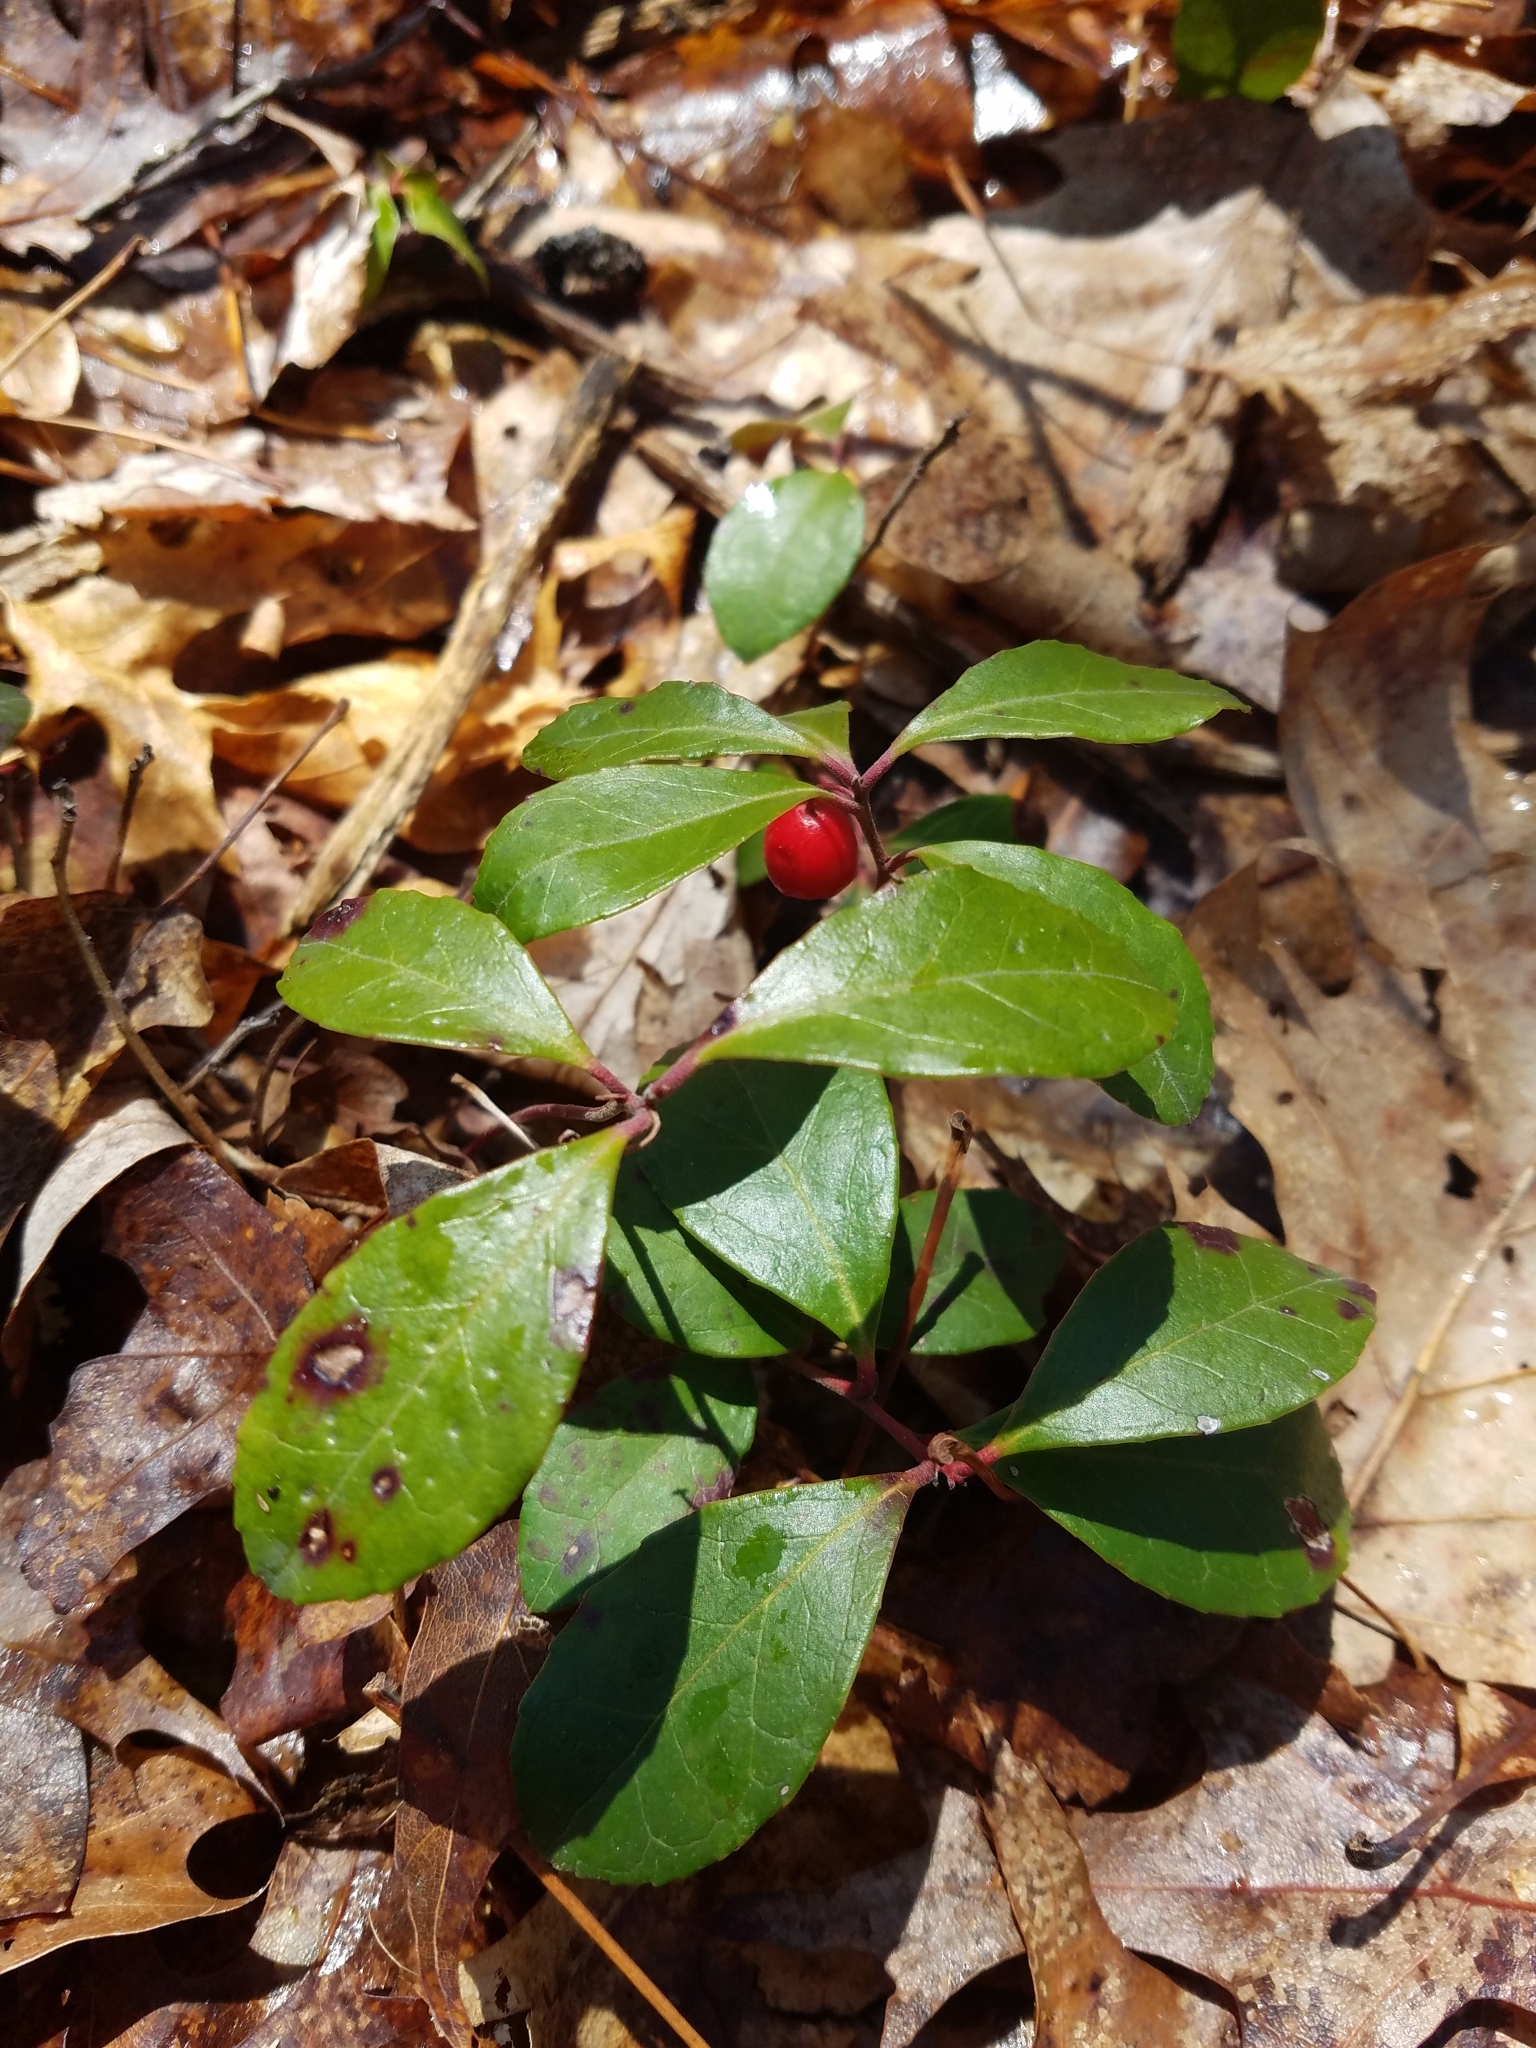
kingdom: Plantae
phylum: Tracheophyta
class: Magnoliopsida
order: Ericales
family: Ericaceae
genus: Gaultheria
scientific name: Gaultheria procumbens
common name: Checkerberry
